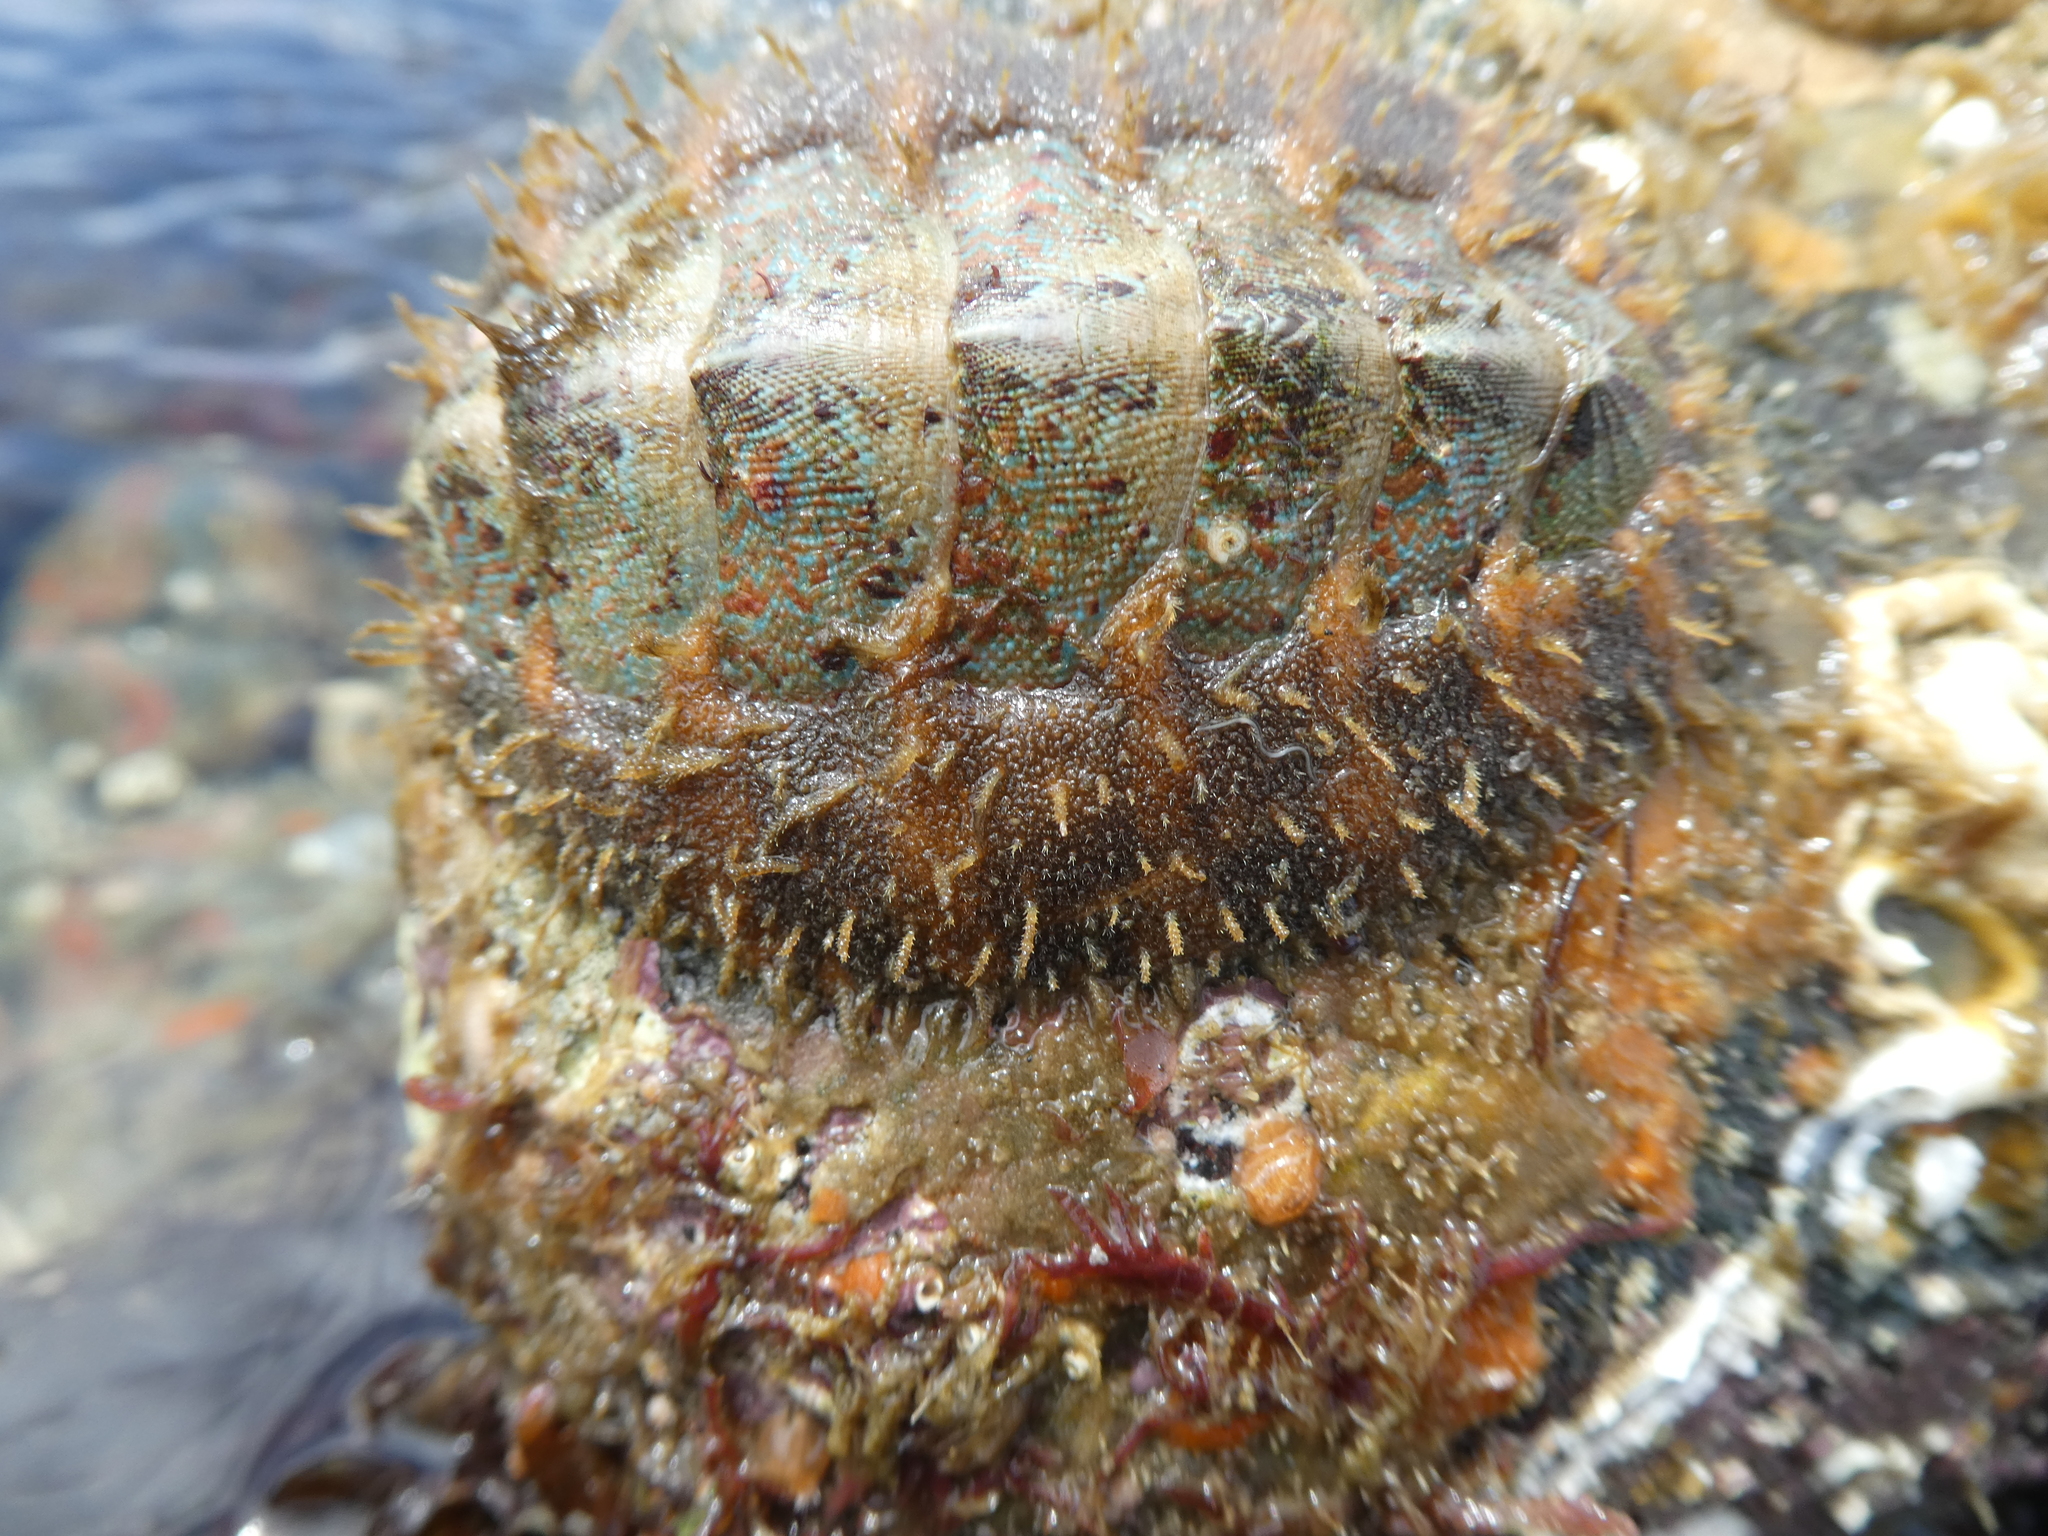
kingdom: Animalia
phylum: Mollusca
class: Polyplacophora
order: Chitonida
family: Mopaliidae
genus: Mopalia
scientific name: Mopalia spectabilis
